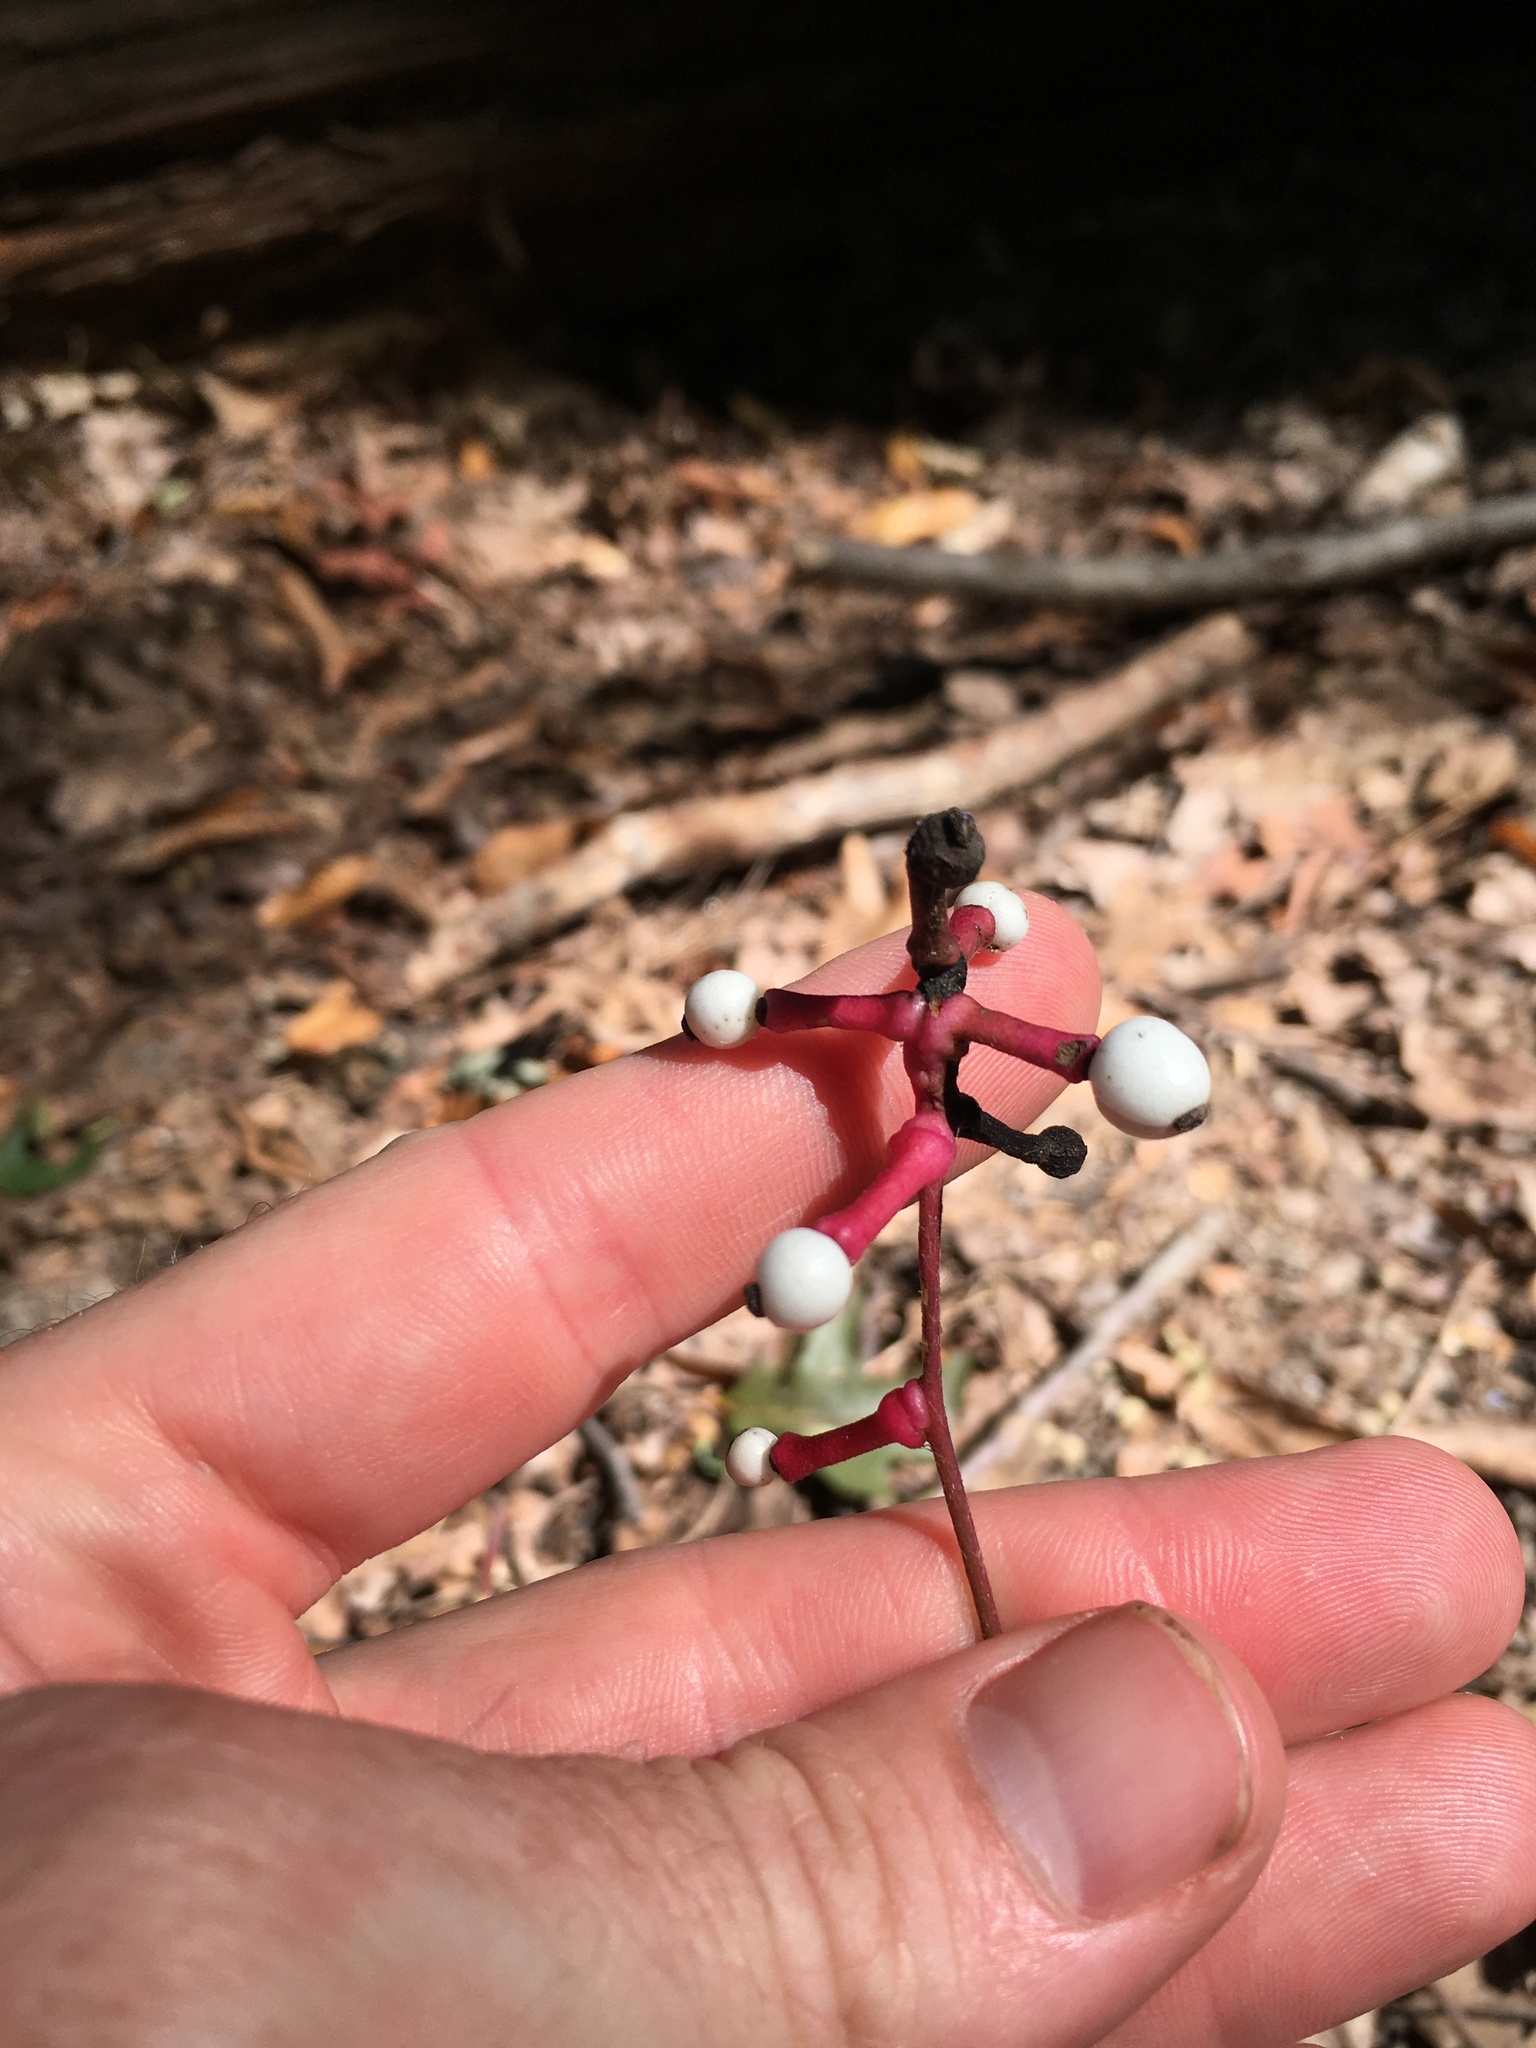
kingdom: Plantae
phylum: Tracheophyta
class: Magnoliopsida
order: Ranunculales
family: Ranunculaceae
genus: Actaea
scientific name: Actaea pachypoda
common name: Doll's-eyes
